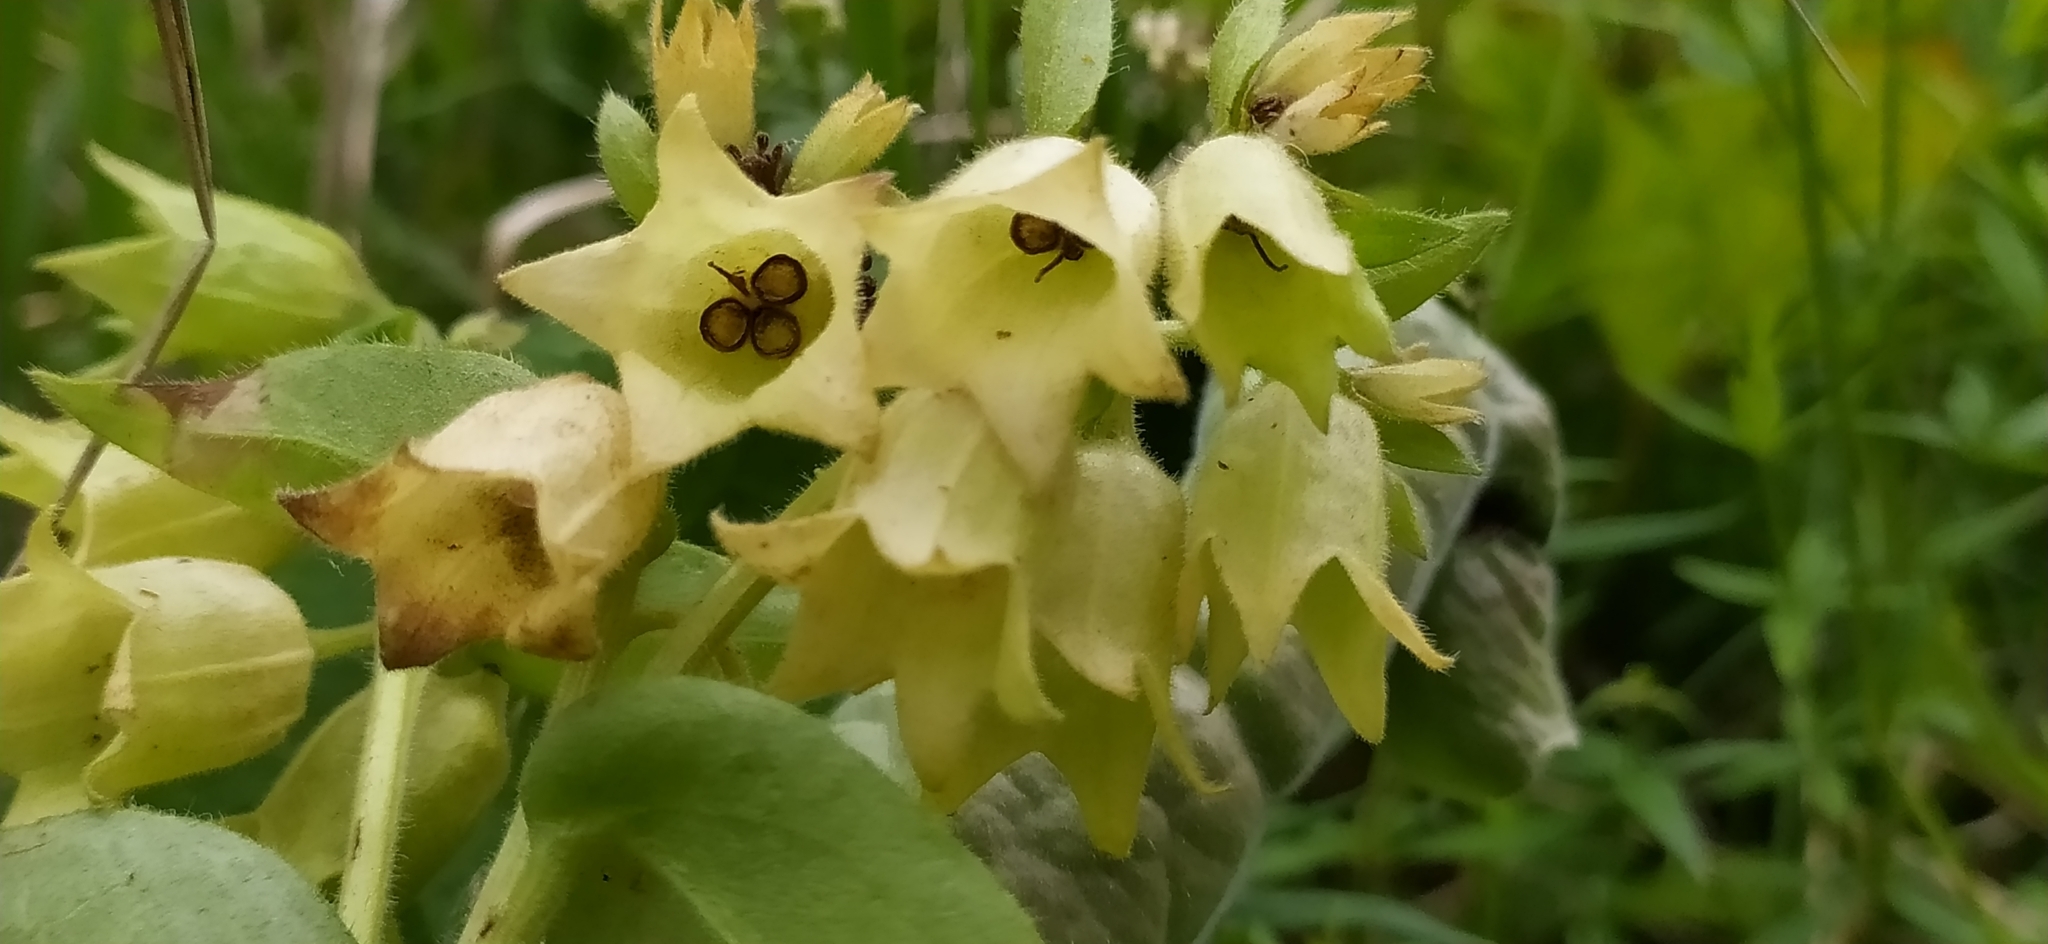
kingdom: Plantae
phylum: Tracheophyta
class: Magnoliopsida
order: Boraginales
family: Boraginaceae
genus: Pulmonaria
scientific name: Pulmonaria mollis
